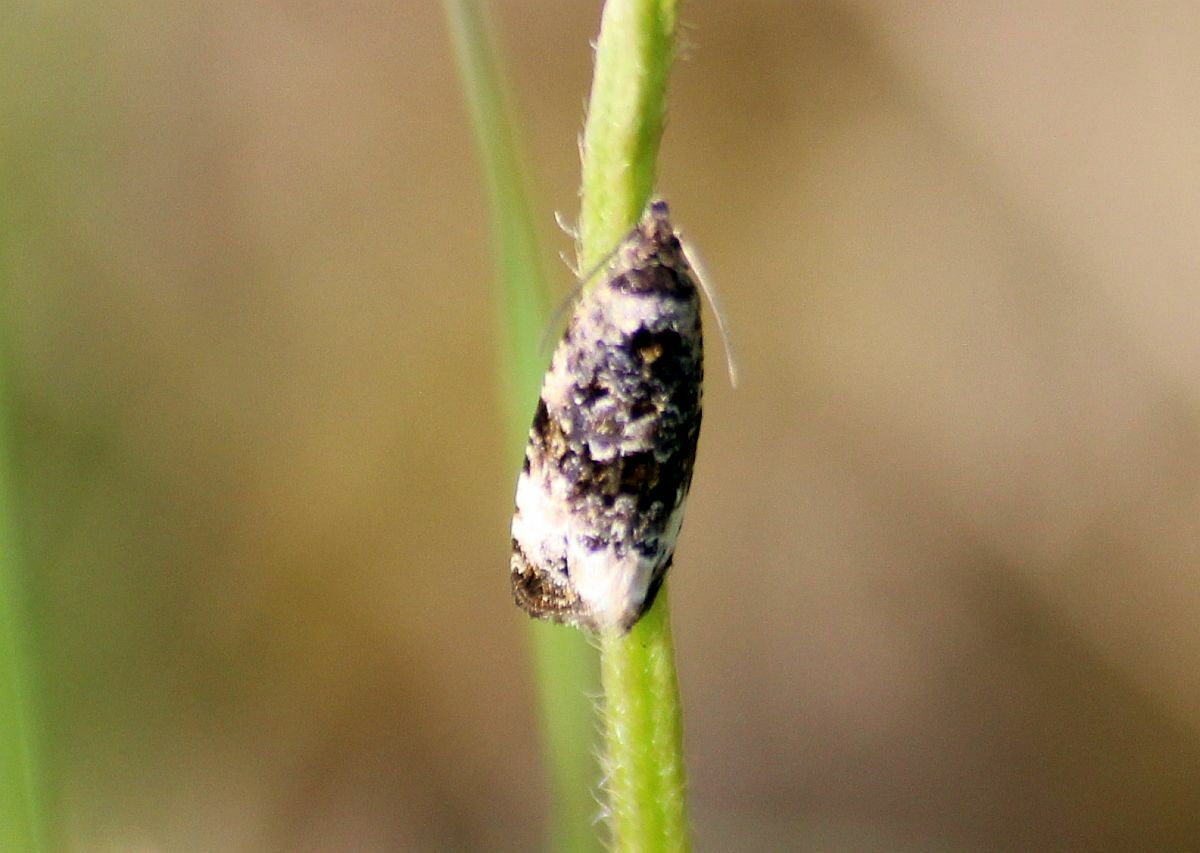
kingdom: Animalia
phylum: Arthropoda
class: Insecta
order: Lepidoptera
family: Tortricidae
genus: Syricoris
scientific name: Syricoris lacunana
